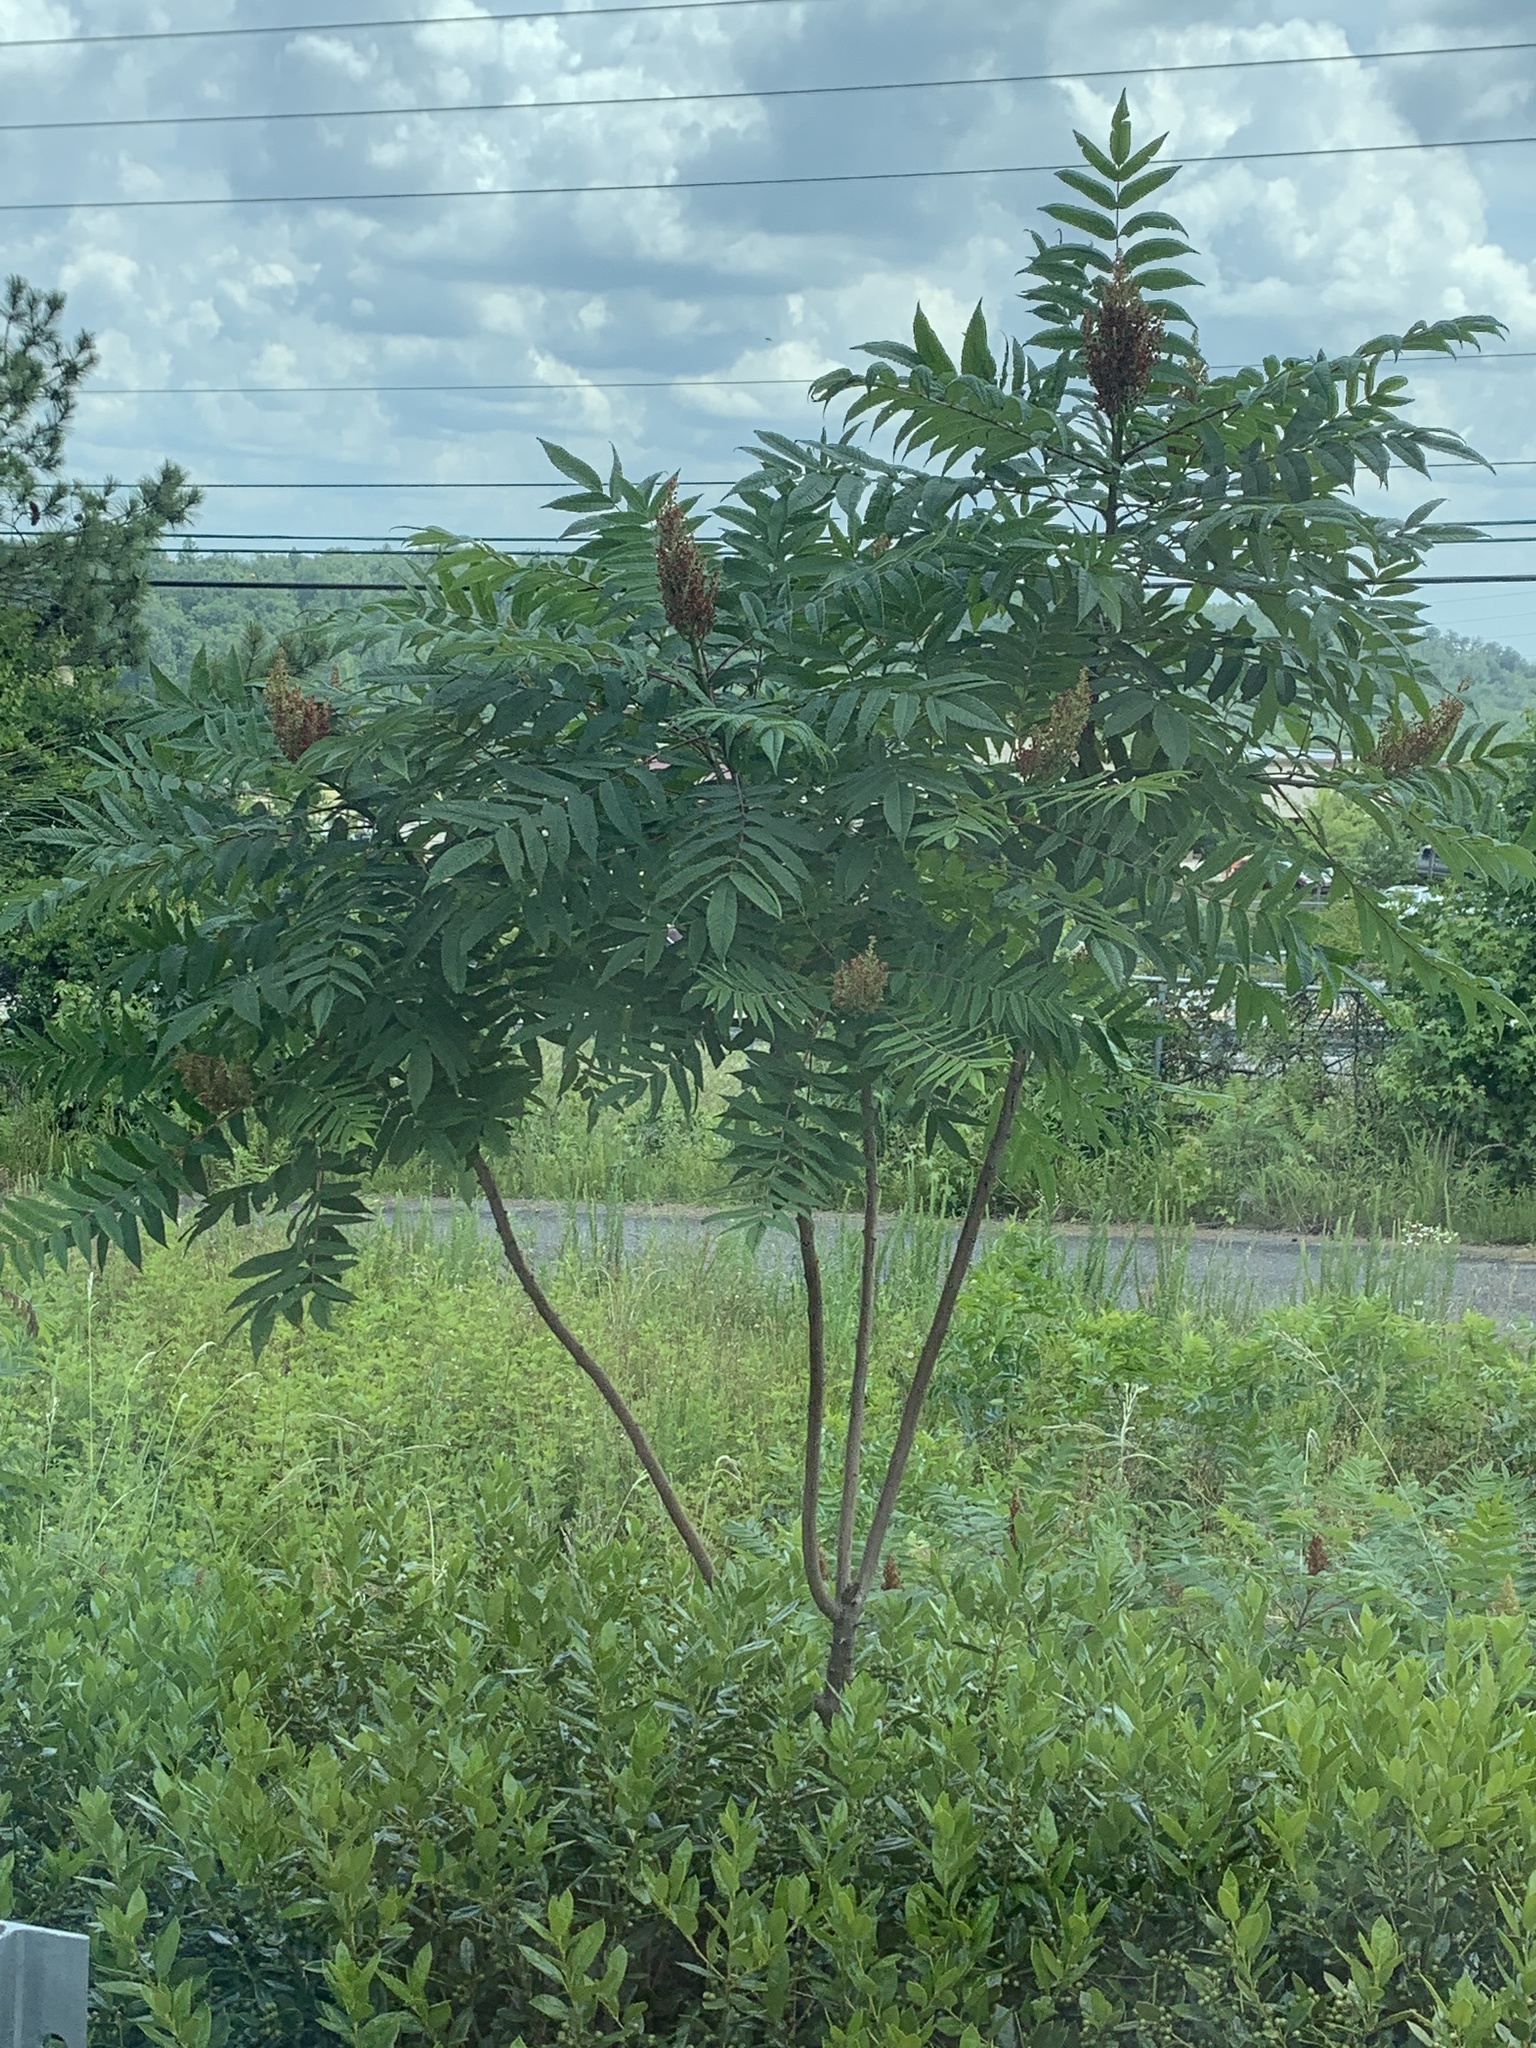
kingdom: Plantae
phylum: Tracheophyta
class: Magnoliopsida
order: Sapindales
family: Anacardiaceae
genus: Rhus
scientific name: Rhus glabra
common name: Scarlet sumac
